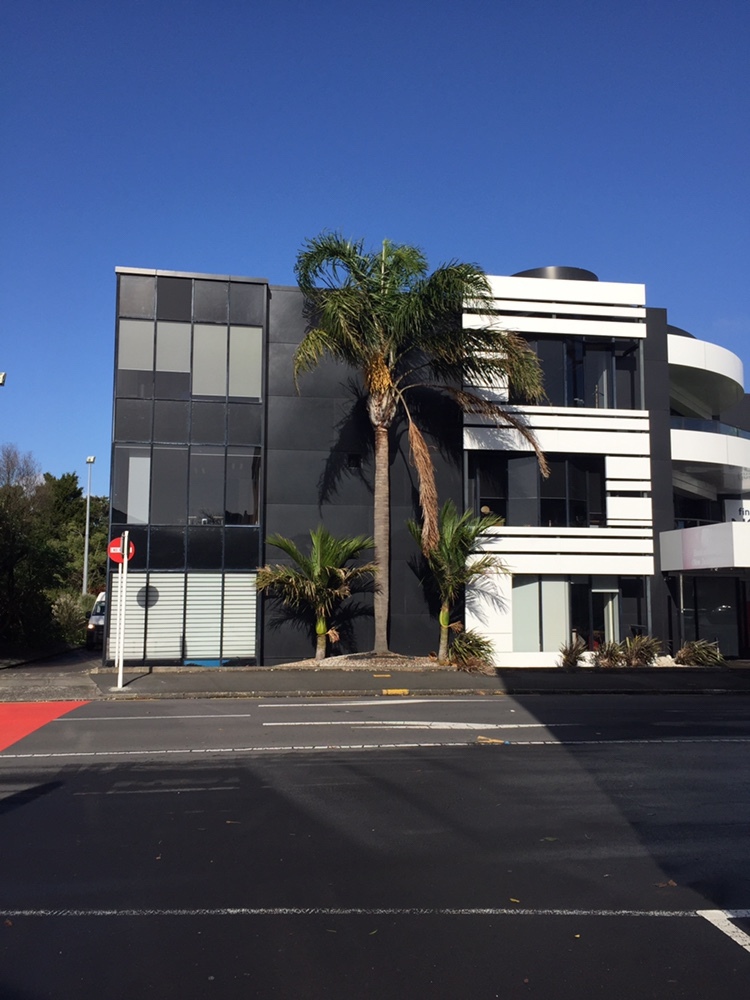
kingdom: Animalia
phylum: Arthropoda
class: Insecta
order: Hemiptera
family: Coccidae
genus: Eucalymnatus
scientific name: Eucalymnatus tessellatus
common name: Tessellated scale
